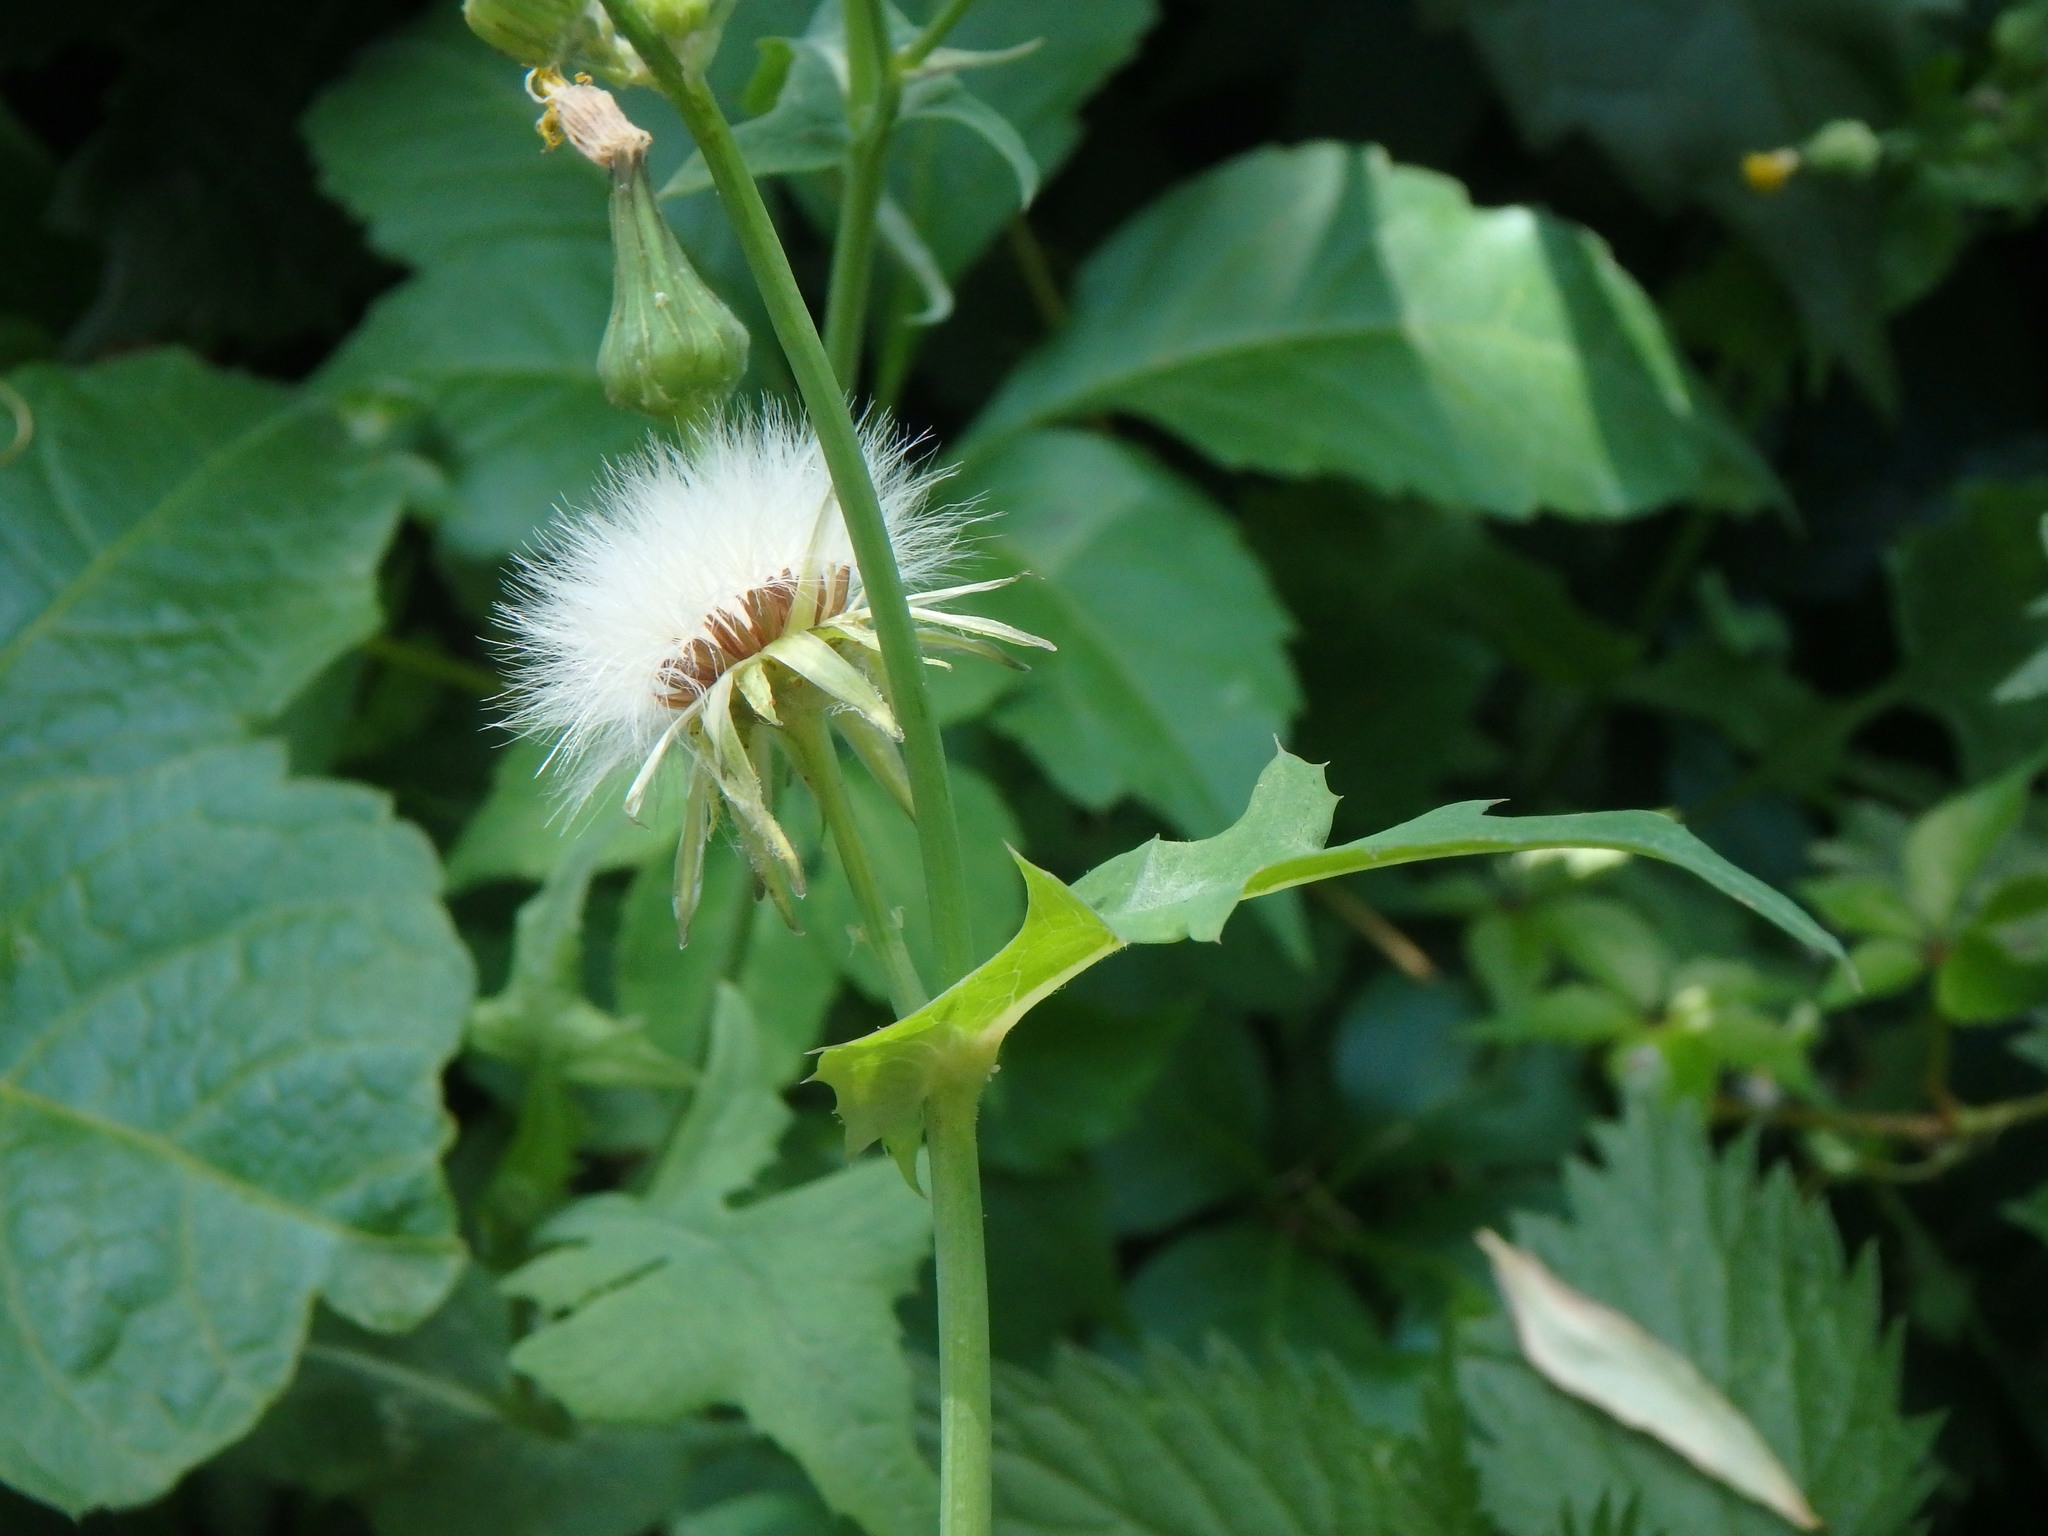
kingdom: Plantae
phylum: Tracheophyta
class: Magnoliopsida
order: Asterales
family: Asteraceae
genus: Sonchus
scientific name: Sonchus oleraceus
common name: Common sowthistle
